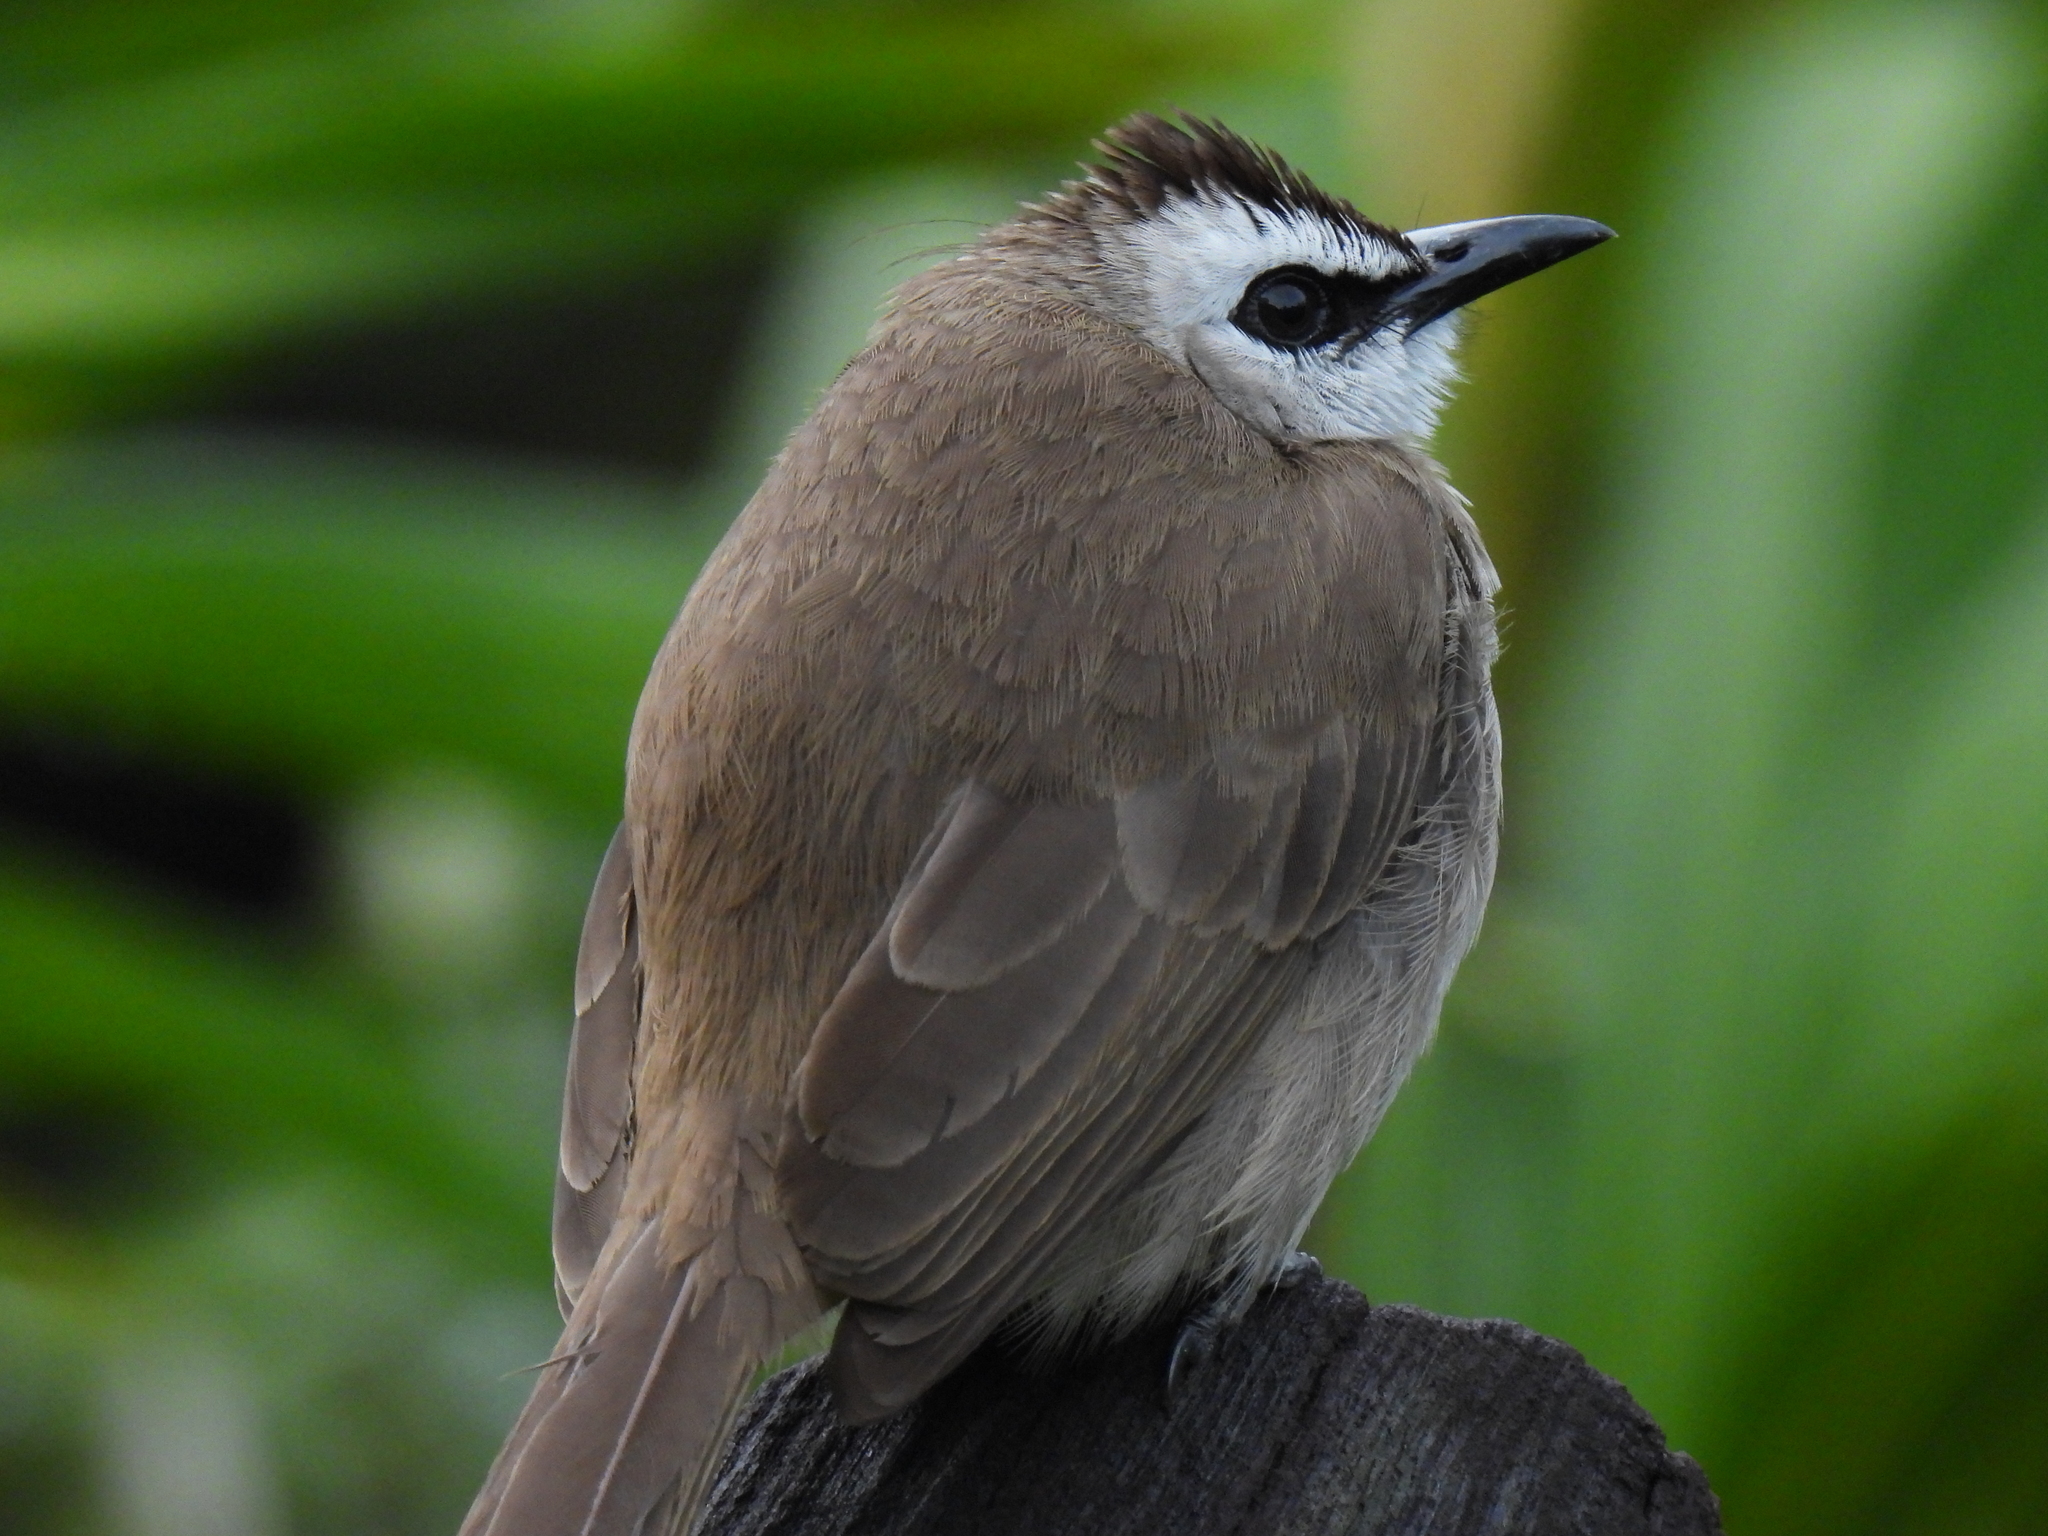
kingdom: Animalia
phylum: Chordata
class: Aves
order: Passeriformes
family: Pycnonotidae
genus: Pycnonotus
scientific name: Pycnonotus goiavier
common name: Yellow-vented bulbul
